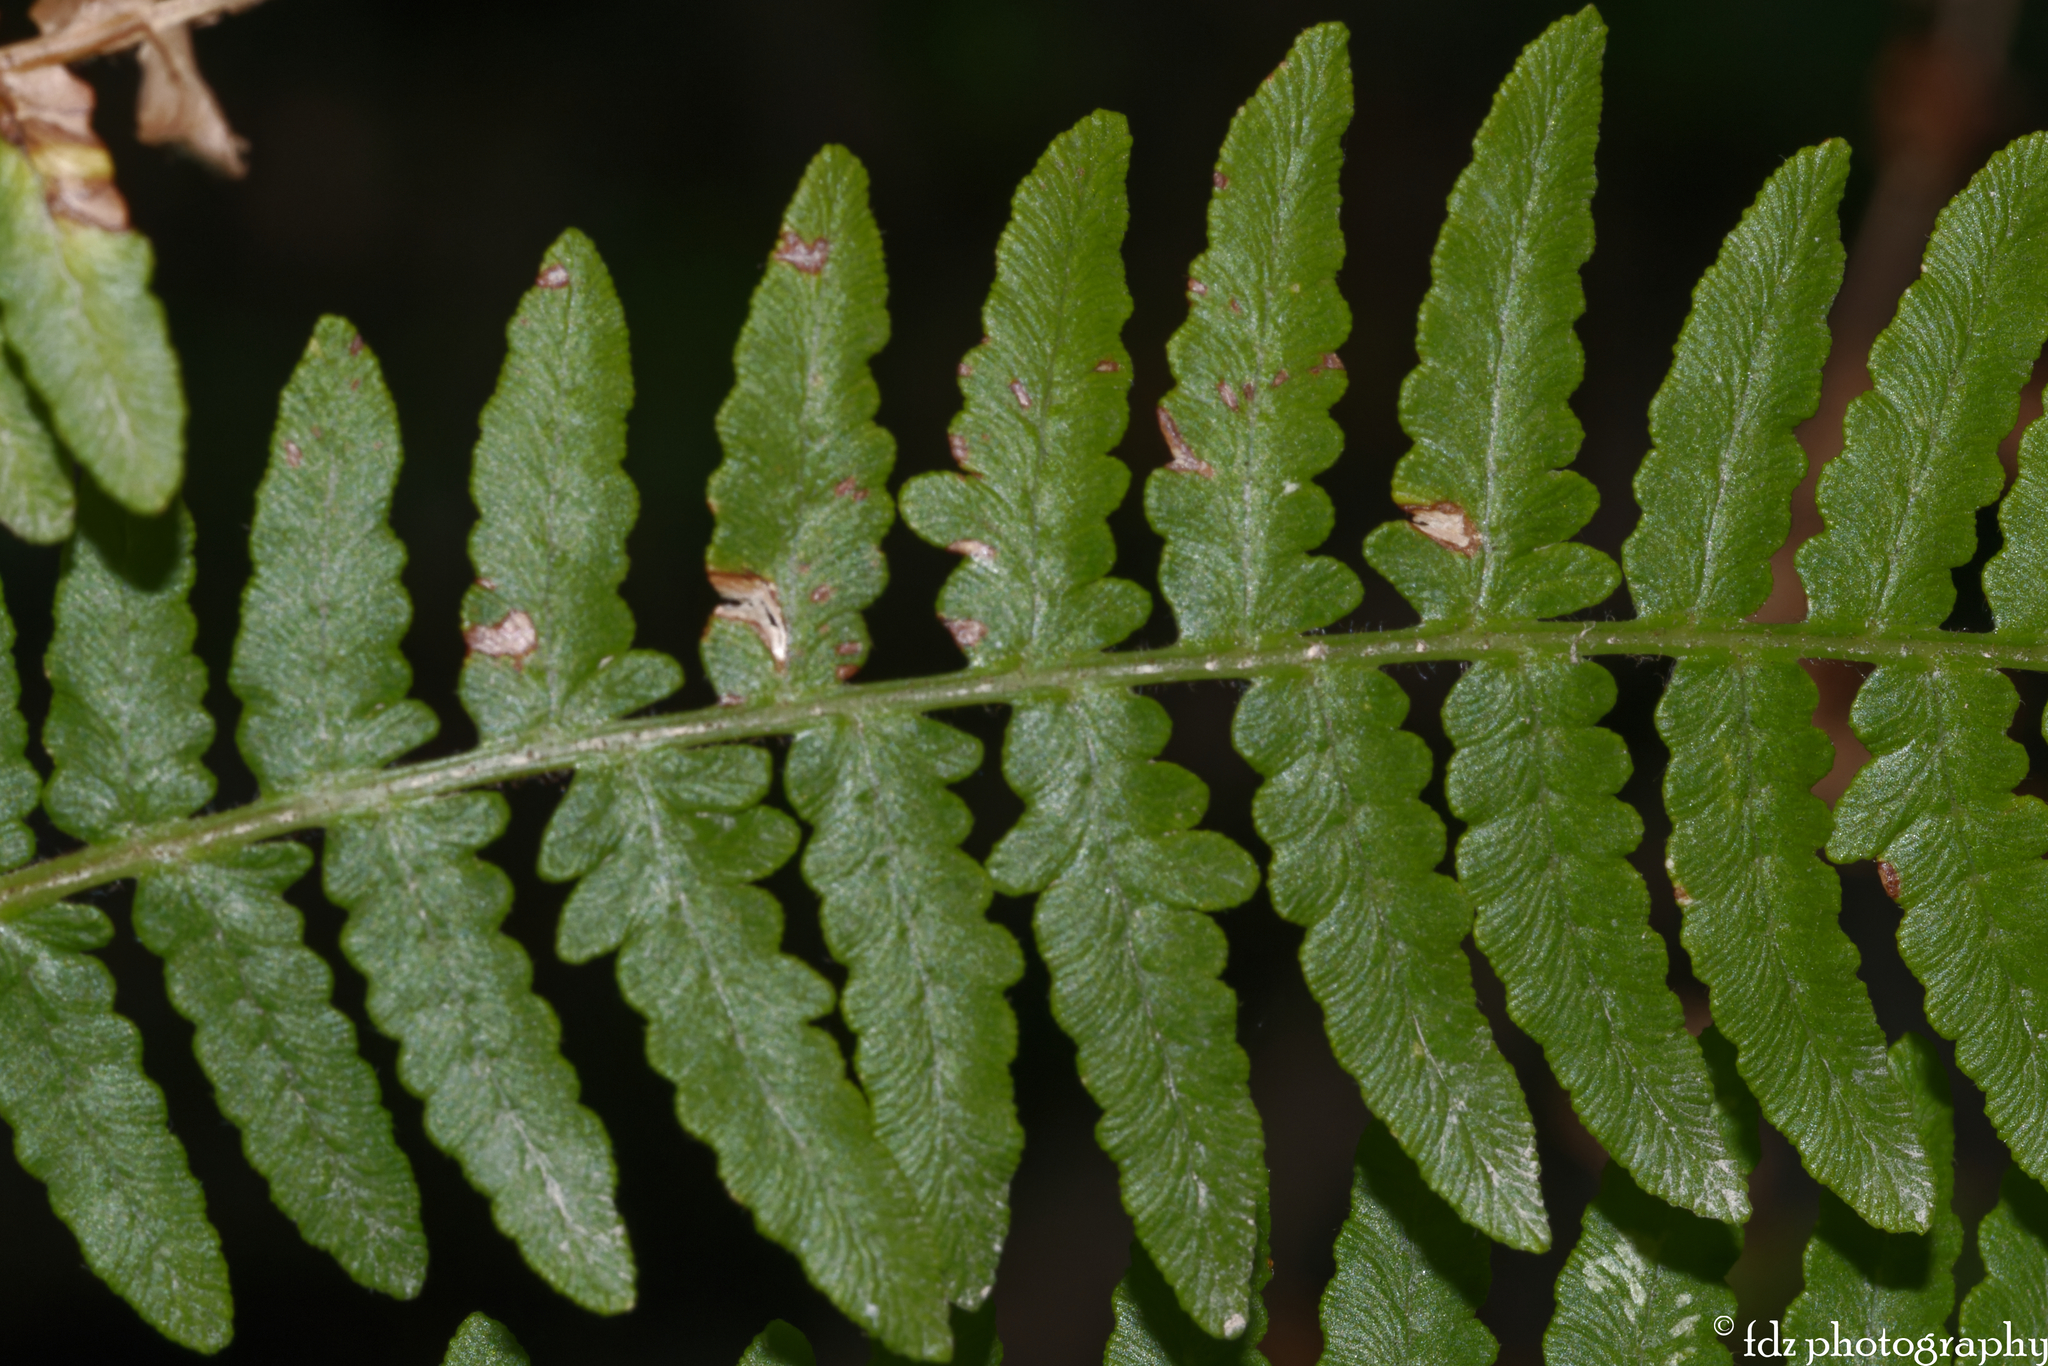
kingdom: Plantae
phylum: Tracheophyta
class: Polypodiopsida
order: Polypodiales
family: Dennstaedtiaceae
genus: Pteridium
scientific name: Pteridium aquilinum
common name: Bracken
